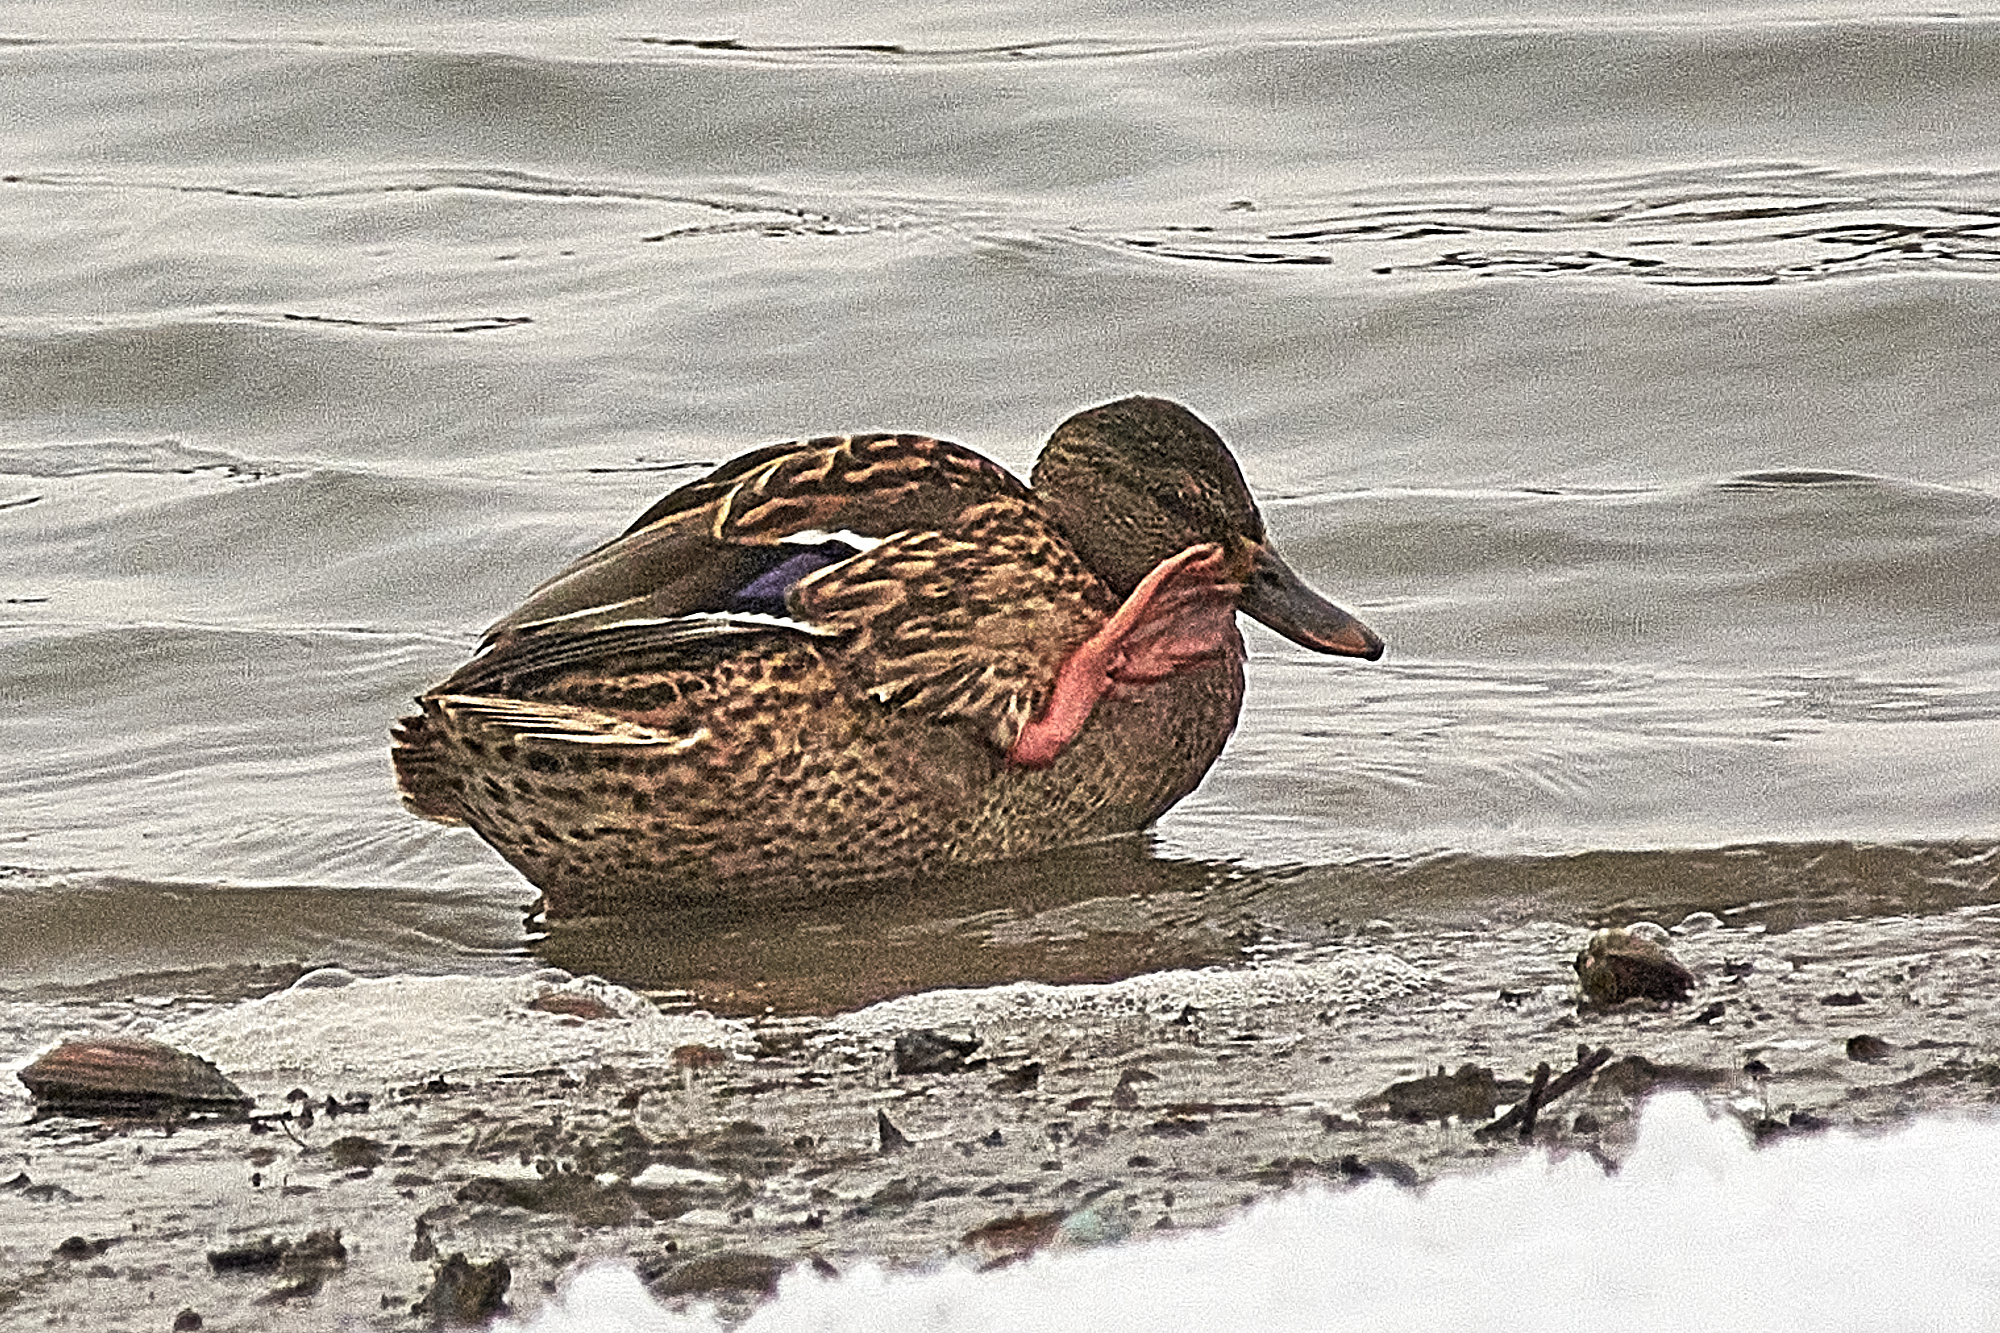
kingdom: Animalia
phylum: Chordata
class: Aves
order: Anseriformes
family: Anatidae
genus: Anas
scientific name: Anas platyrhynchos
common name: Mallard
